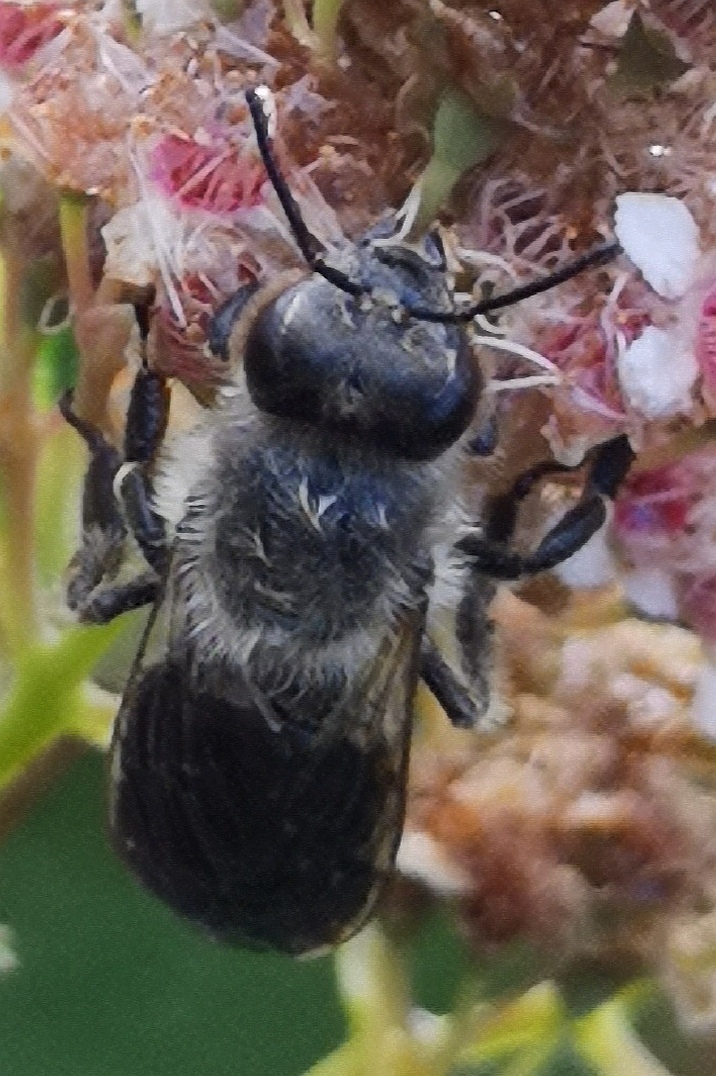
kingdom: Animalia
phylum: Arthropoda
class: Insecta
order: Hymenoptera
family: Apidae
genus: Apis
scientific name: Apis mellifera
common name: Honey bee
